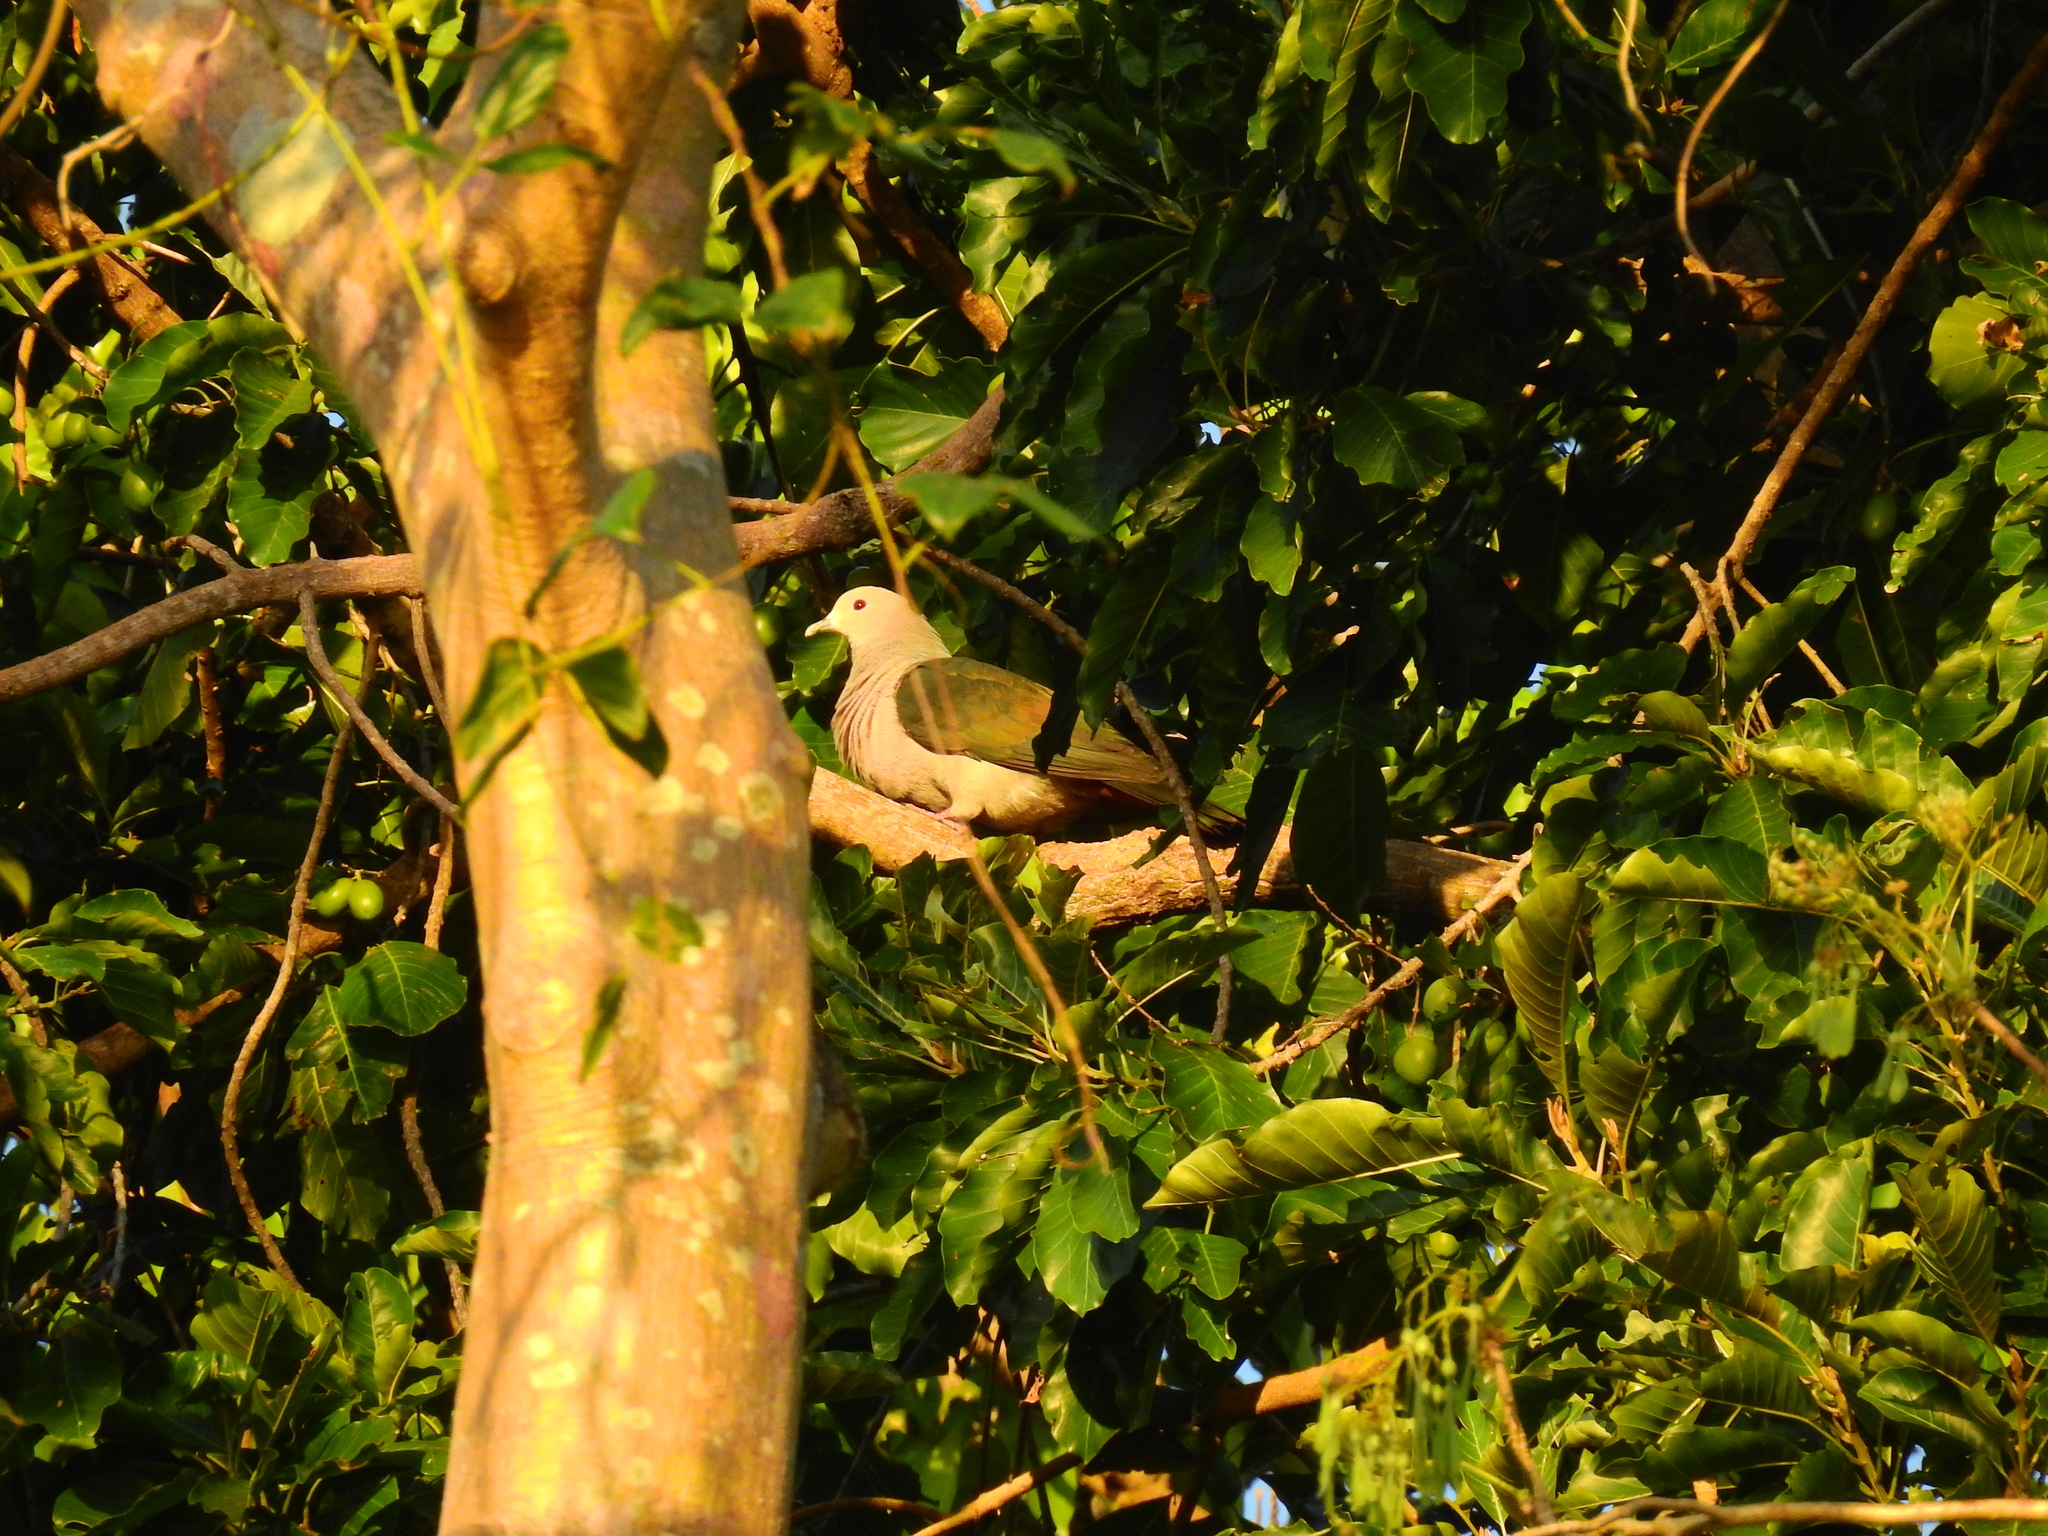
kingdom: Animalia
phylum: Chordata
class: Aves
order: Columbiformes
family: Columbidae
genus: Ducula
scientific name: Ducula aenea
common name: Green imperial pigeon
